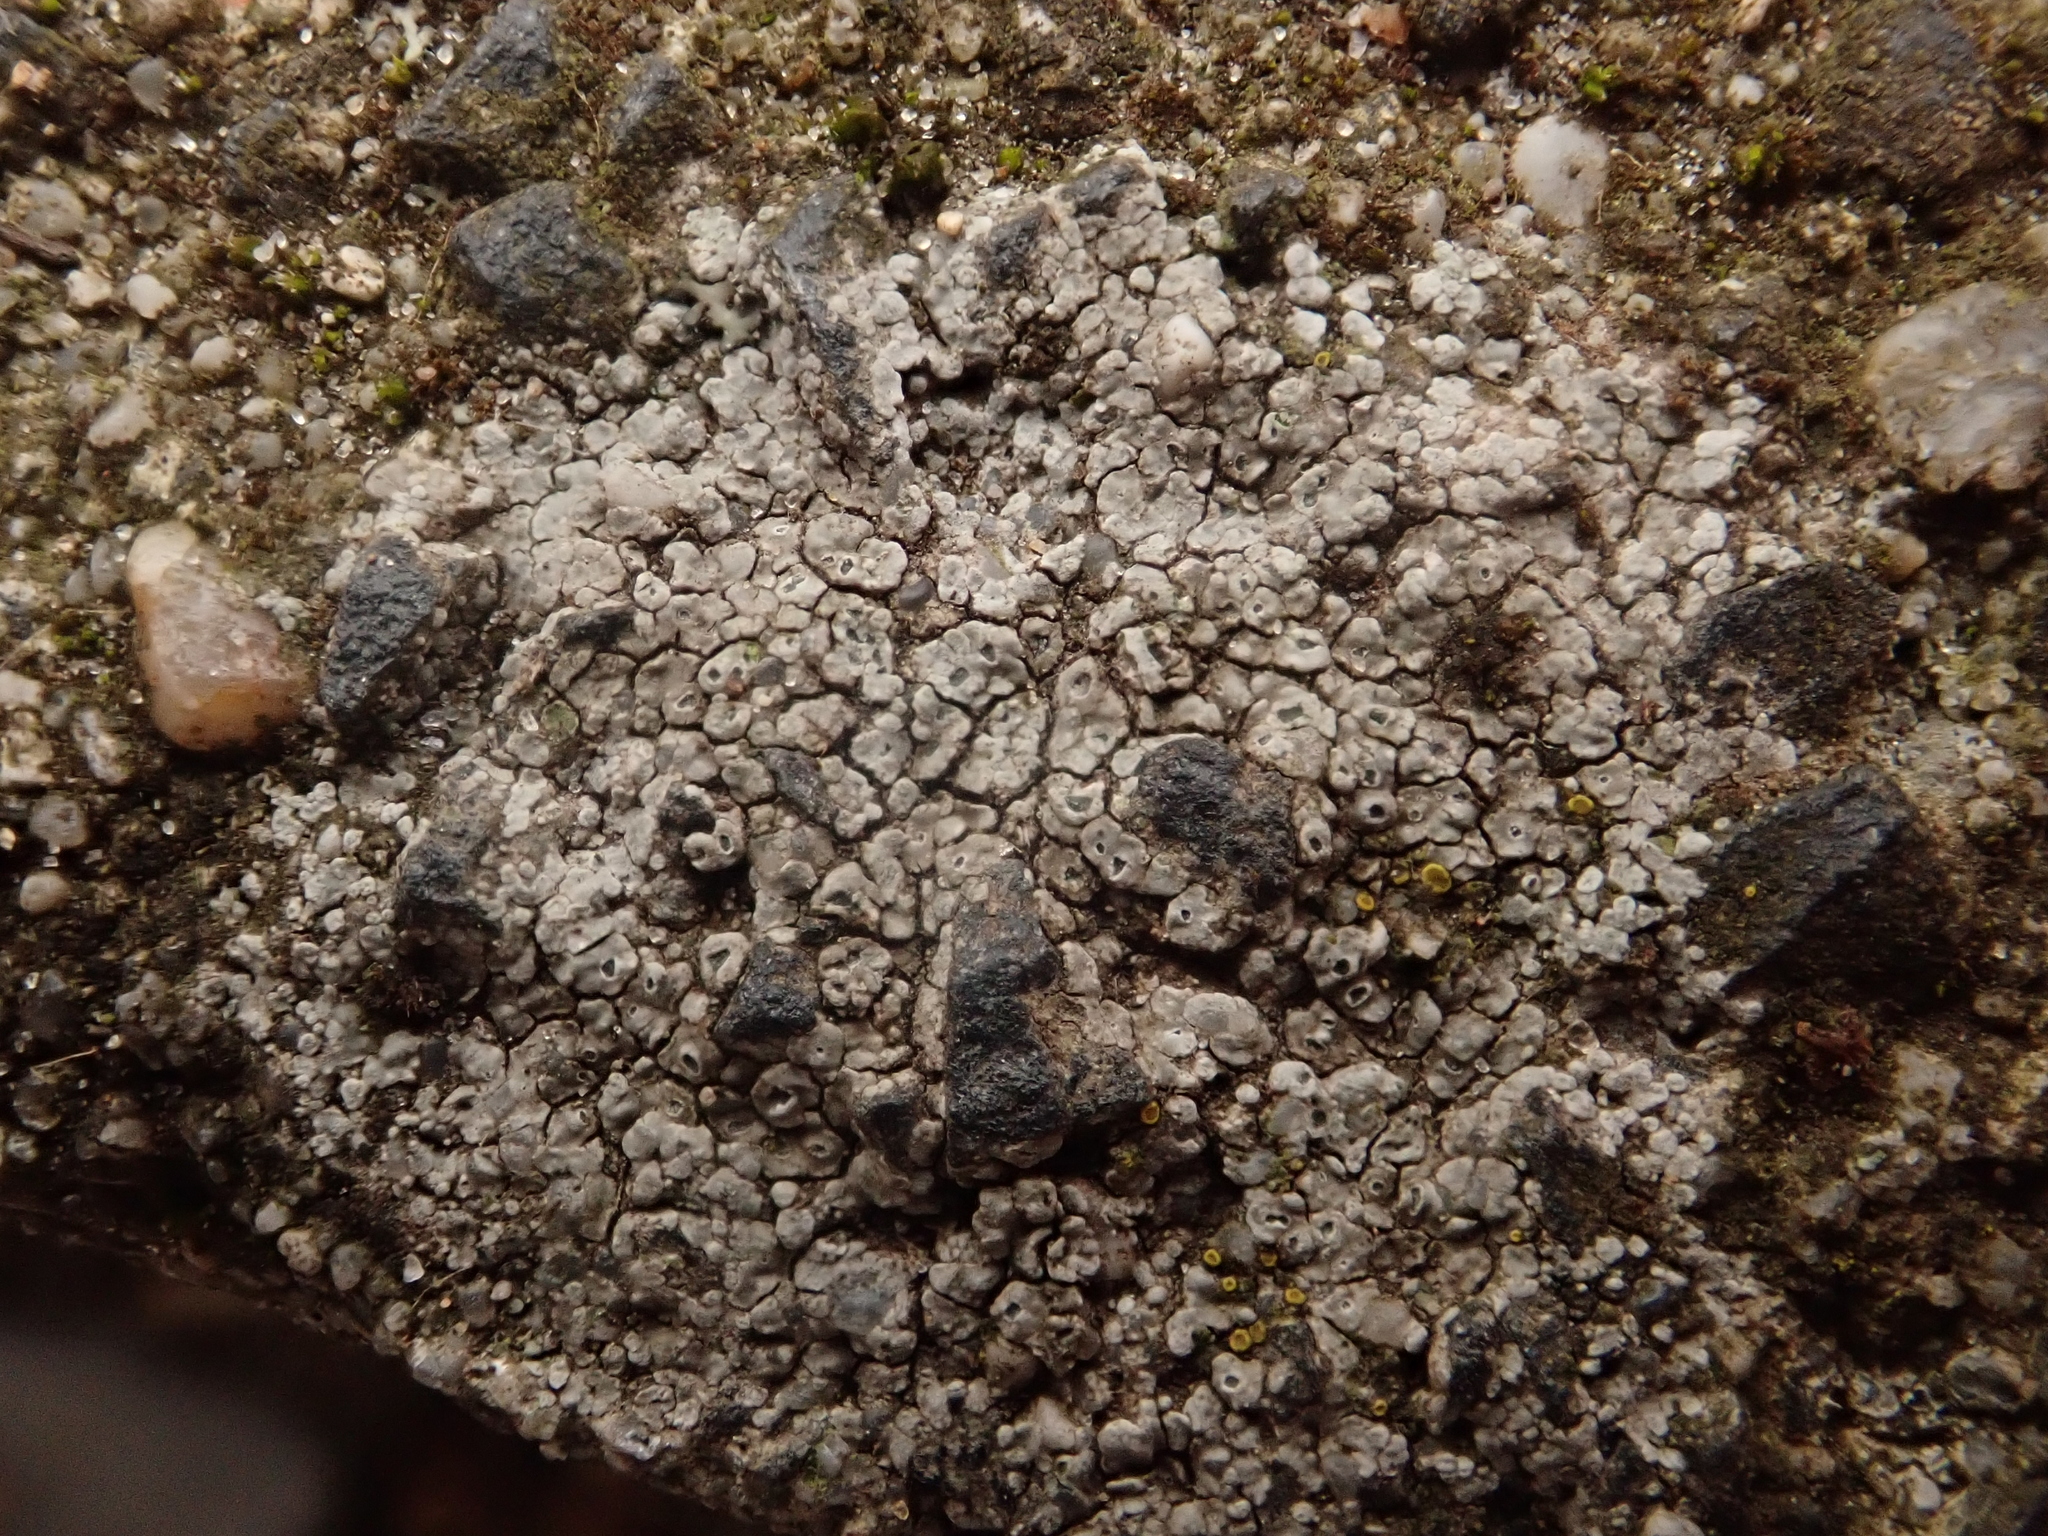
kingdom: Fungi
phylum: Ascomycota
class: Lecanoromycetes
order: Pertusariales
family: Megasporaceae
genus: Circinaria
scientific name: Circinaria contorta
